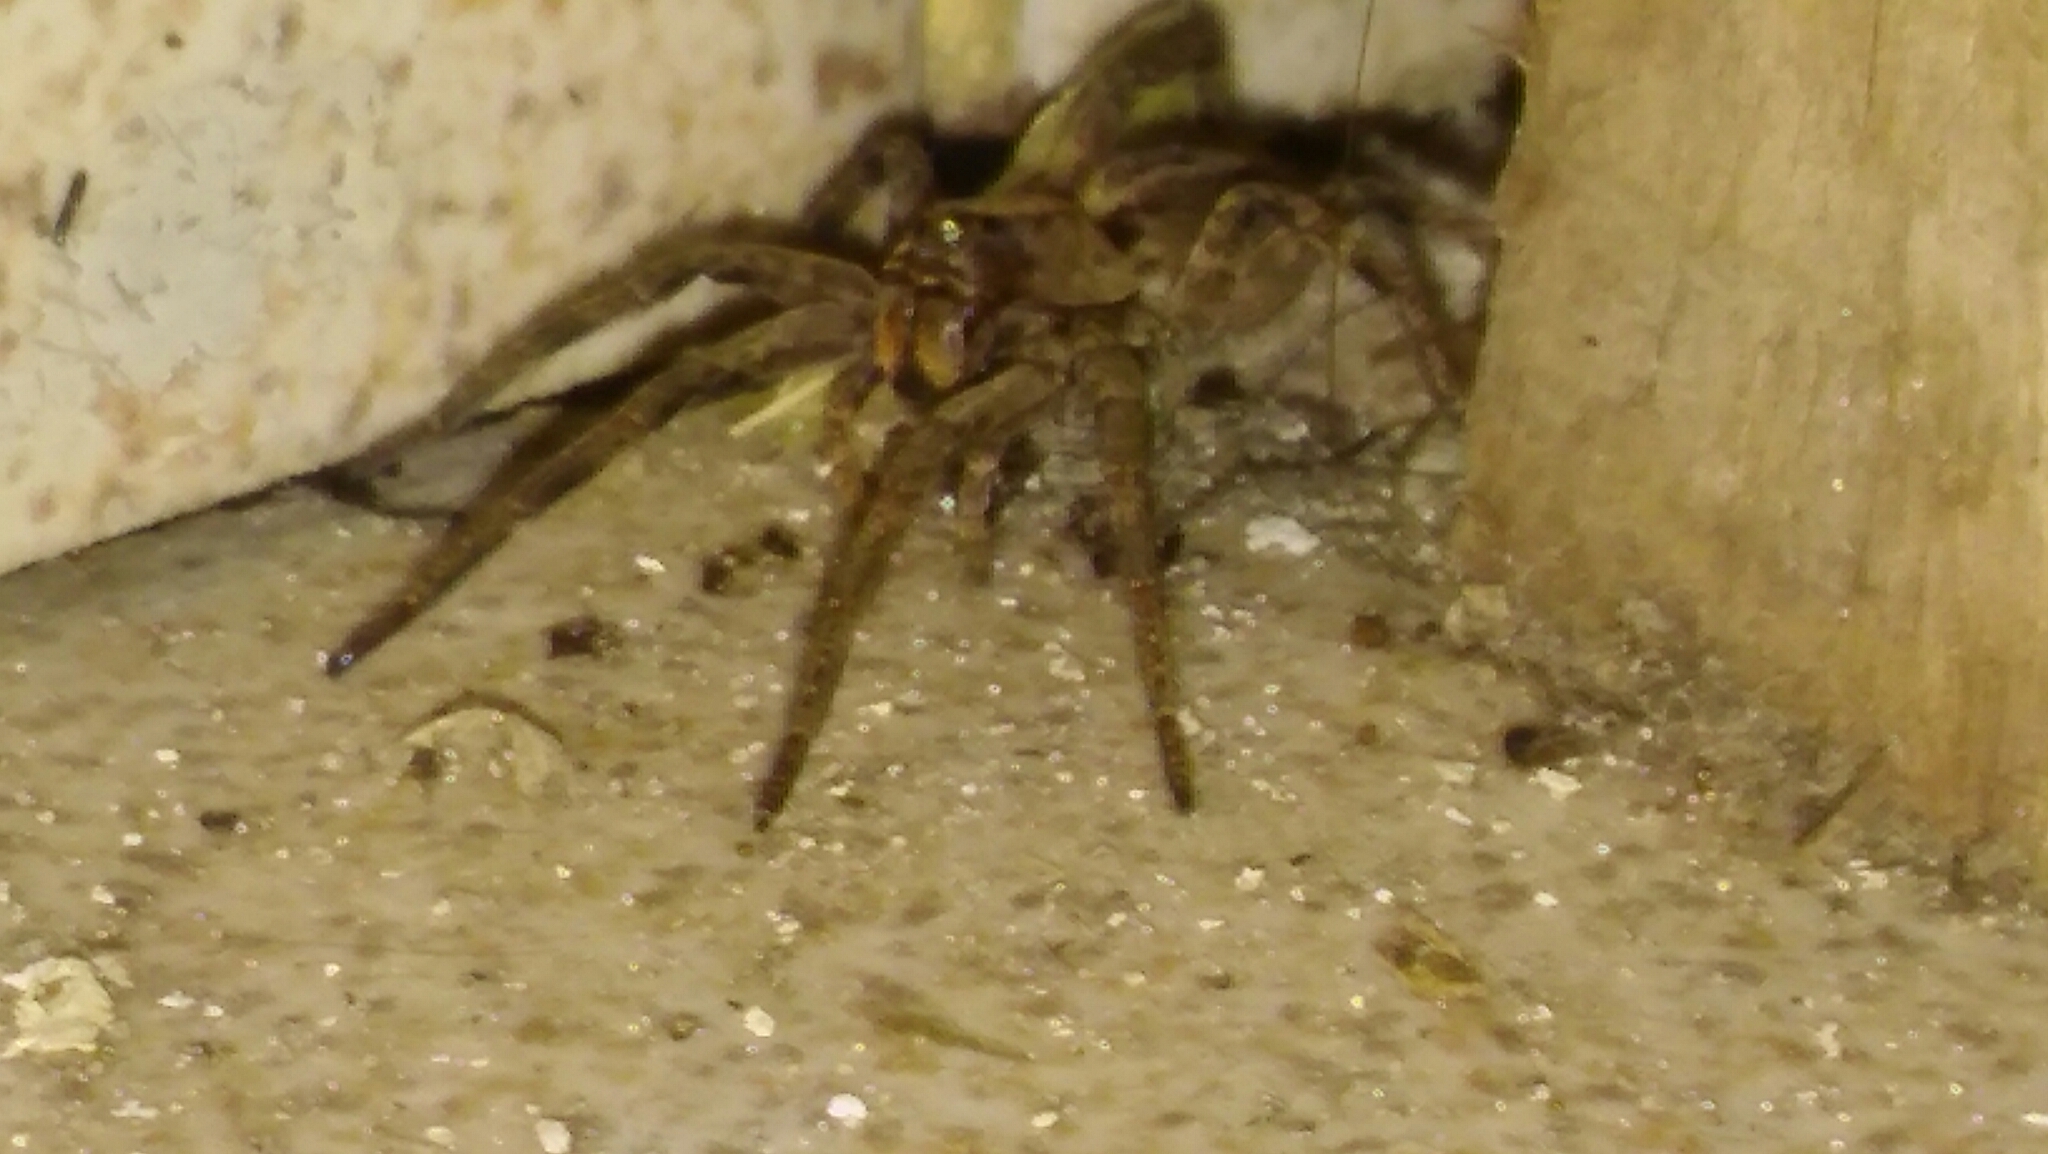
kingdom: Animalia
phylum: Arthropoda
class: Arachnida
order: Araneae
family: Lycosidae
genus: Lycosa
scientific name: Lycosa erythrognatha
